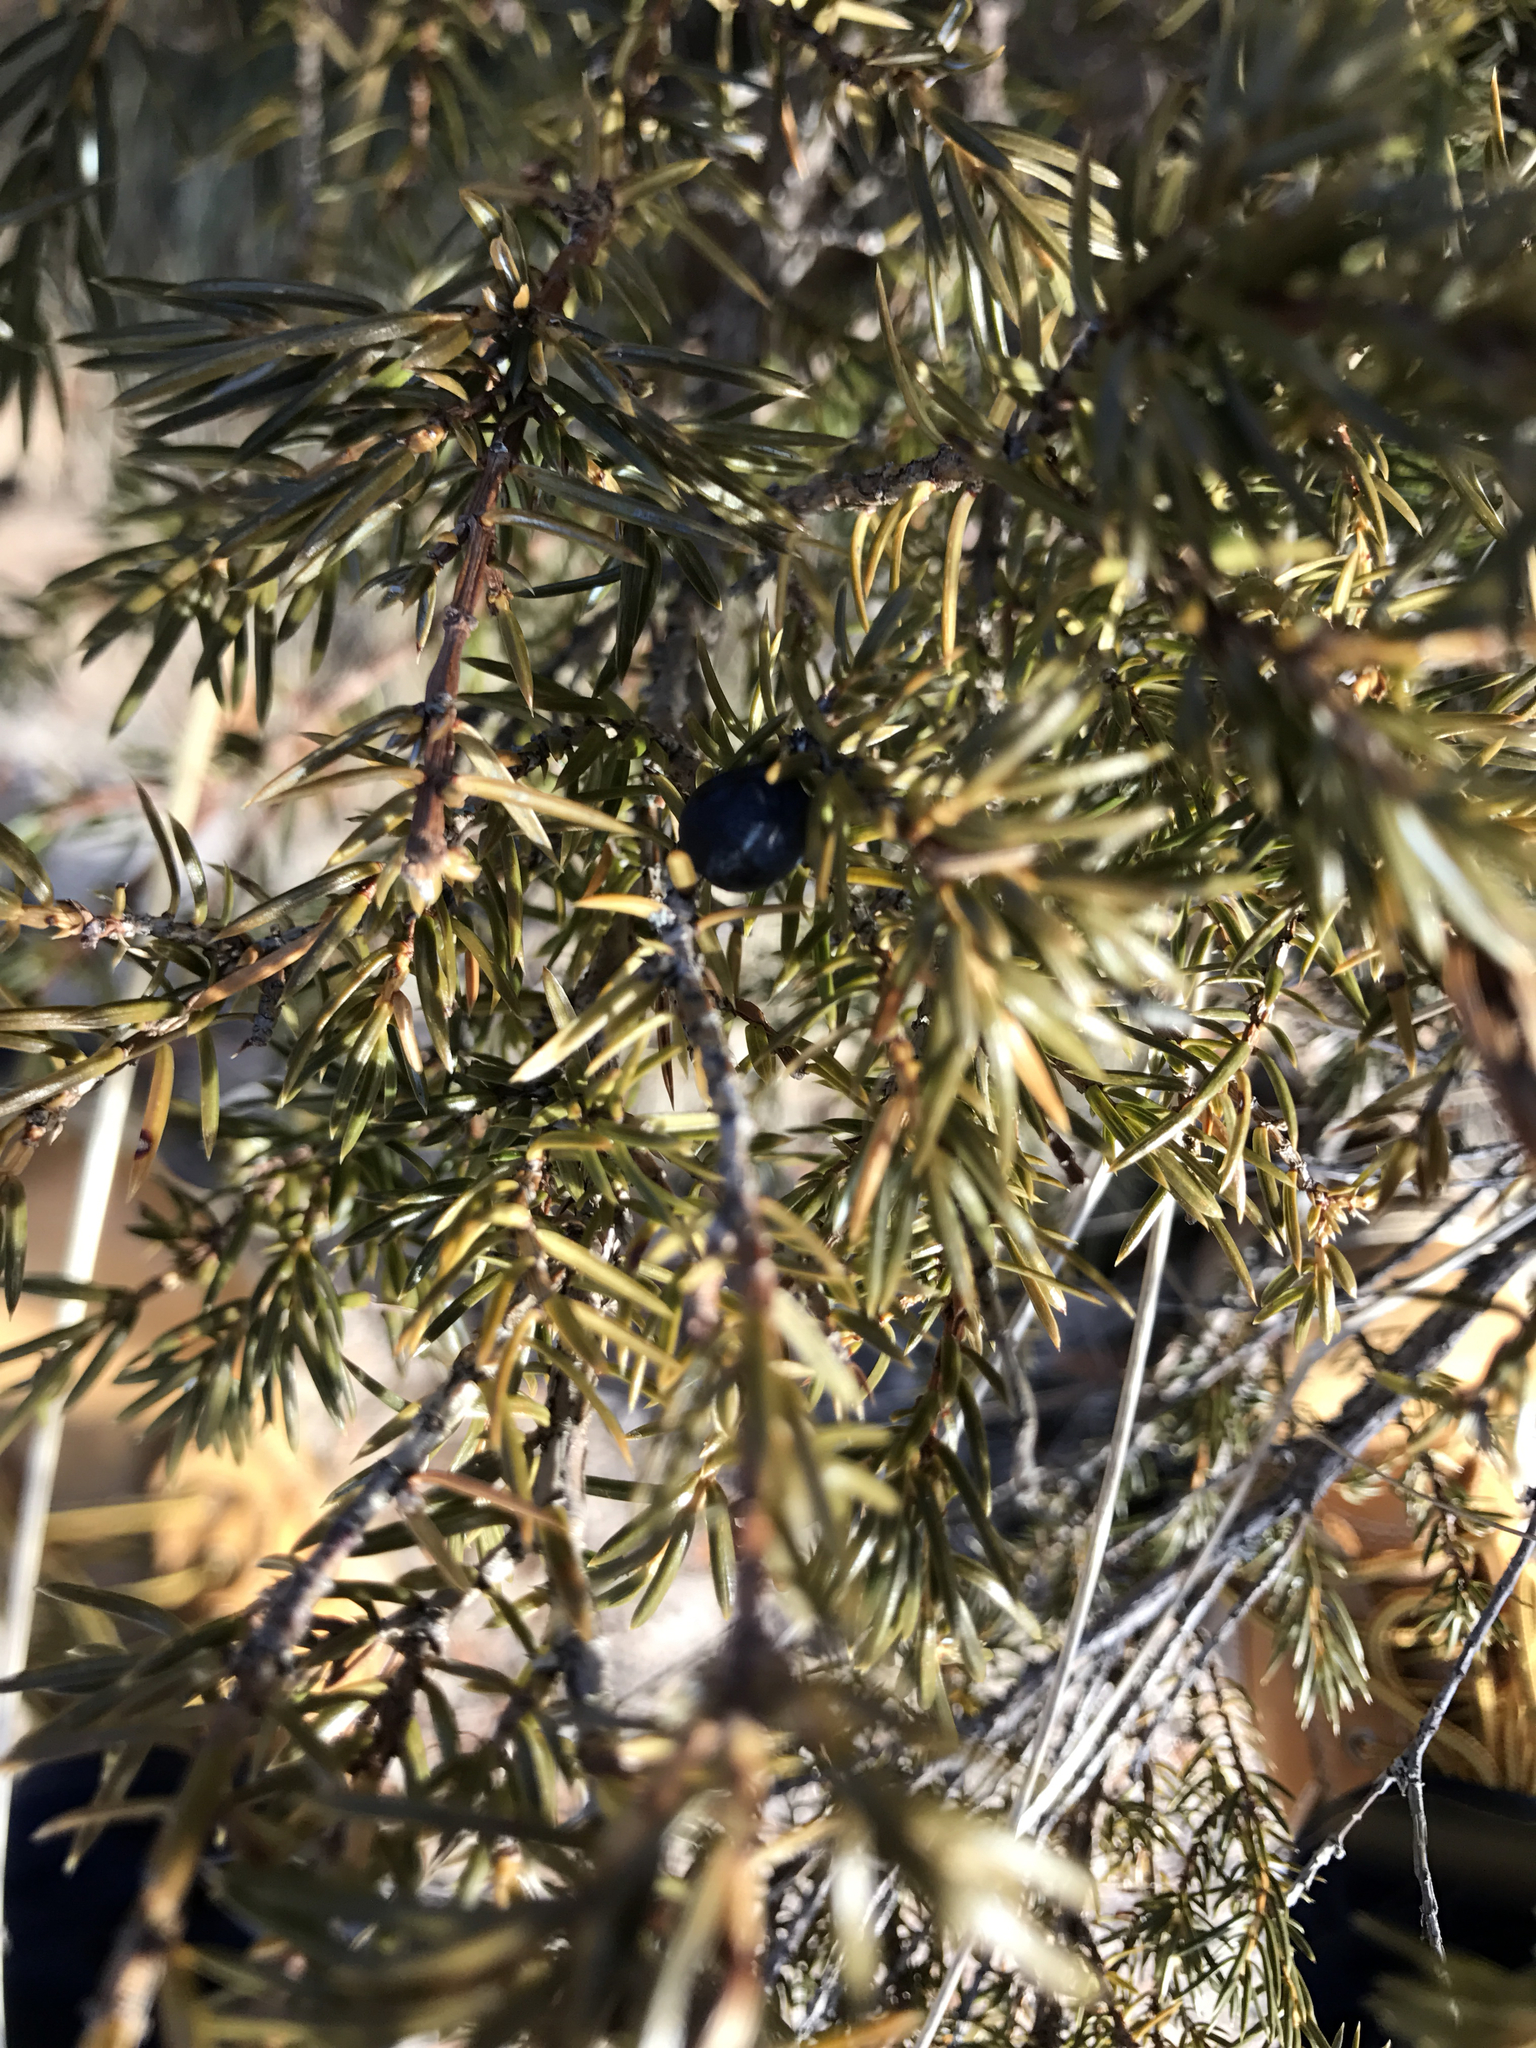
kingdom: Plantae
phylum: Tracheophyta
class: Pinopsida
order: Pinales
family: Cupressaceae
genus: Juniperus
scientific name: Juniperus communis
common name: Common juniper
